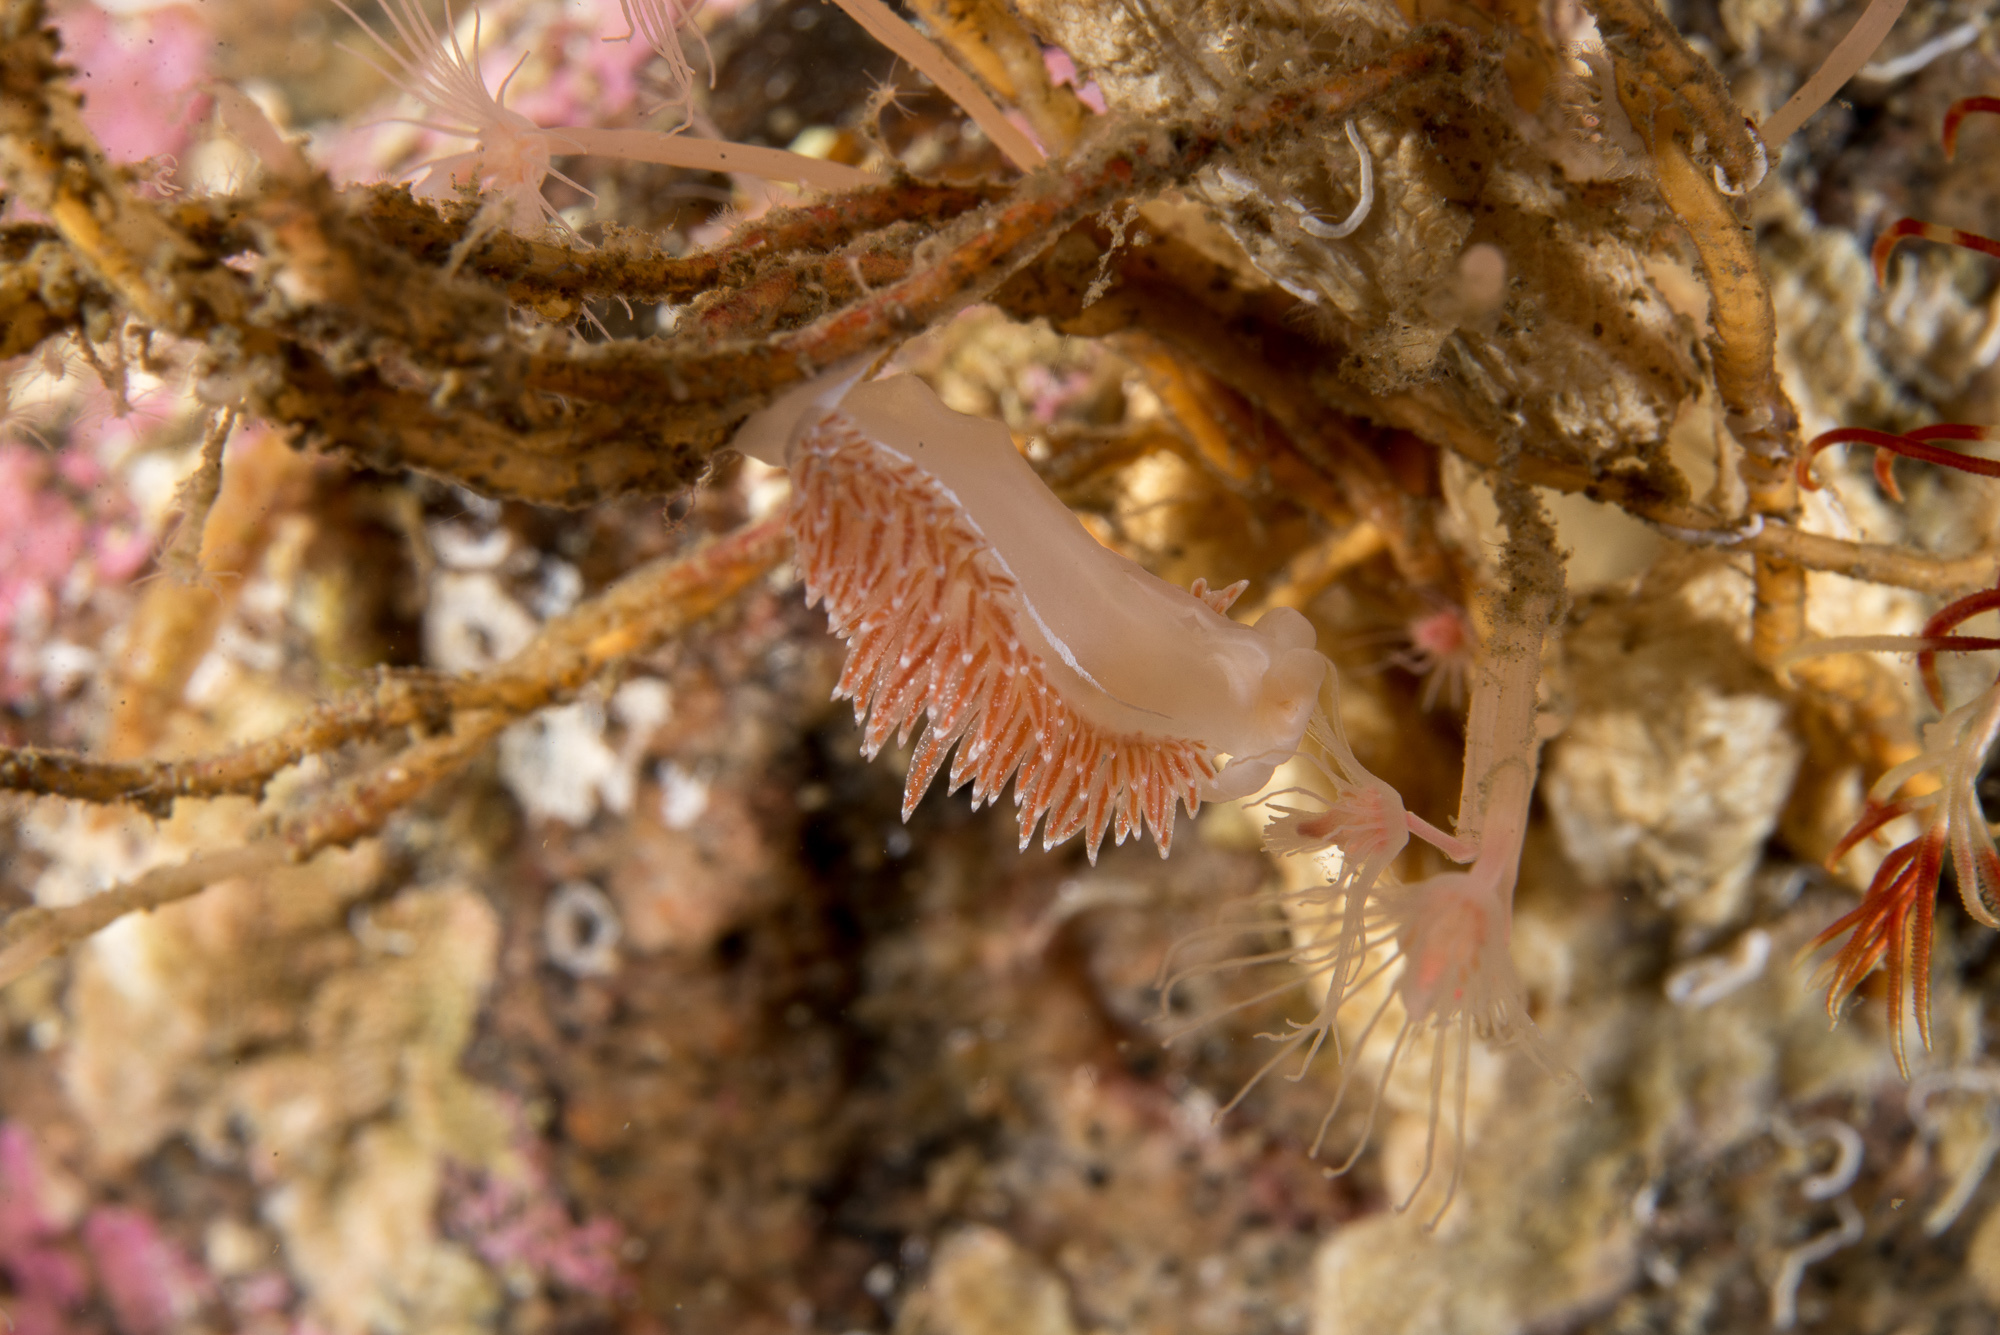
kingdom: Animalia
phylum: Mollusca
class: Gastropoda
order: Nudibranchia
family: Coryphellidae
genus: Coryphella
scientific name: Coryphella monicae
